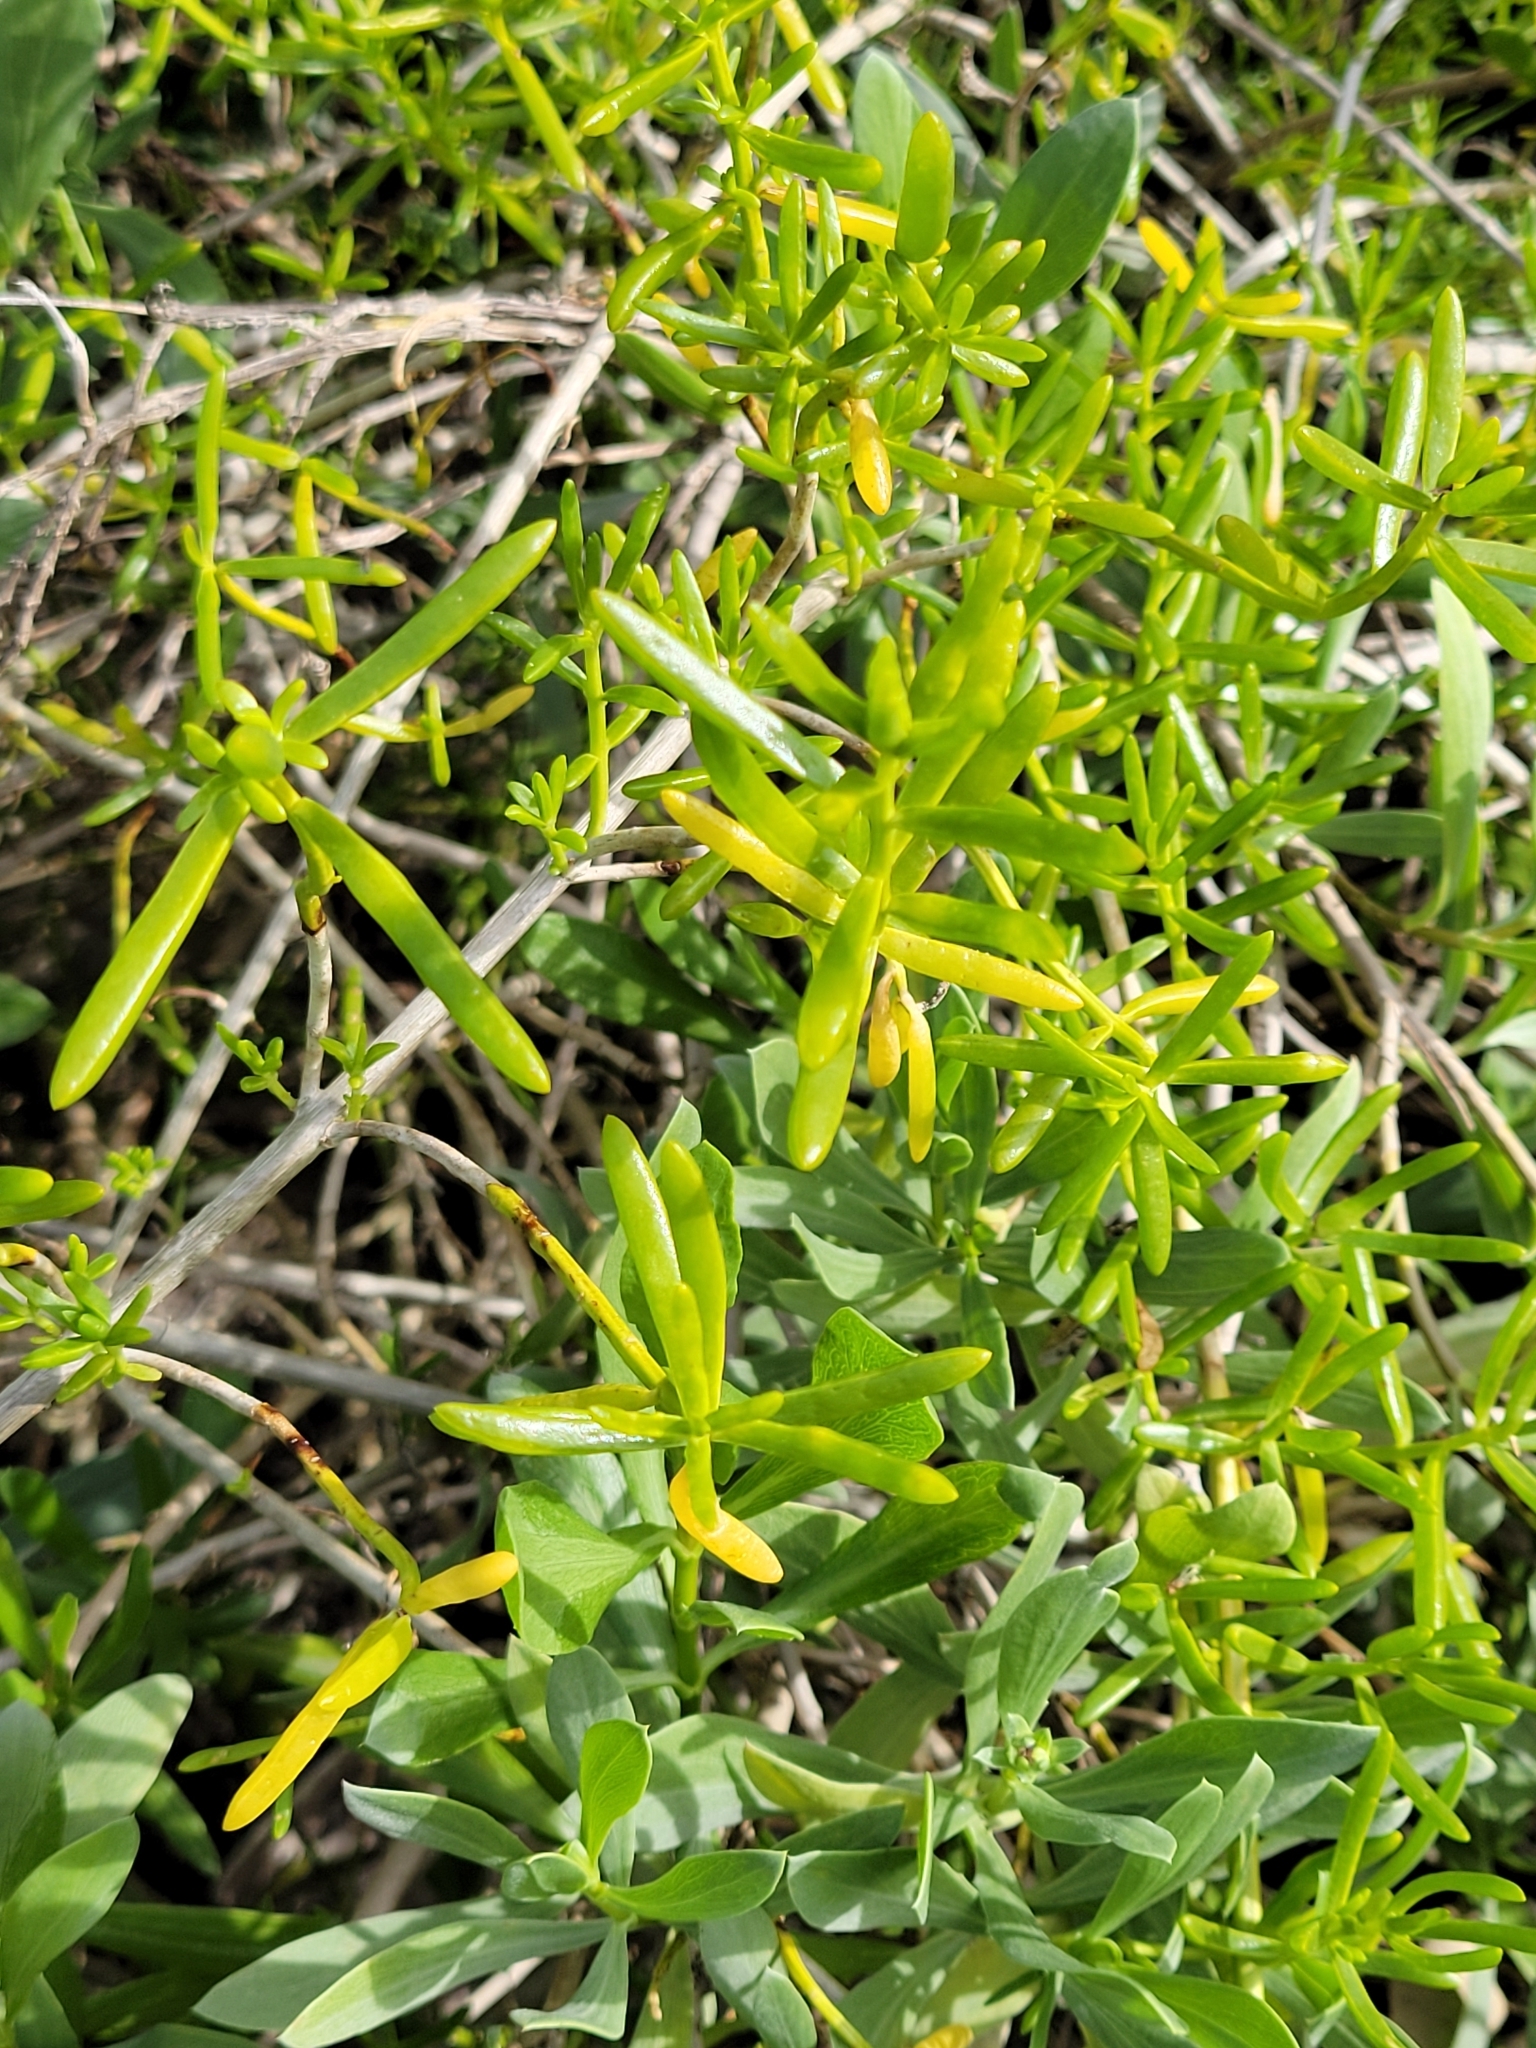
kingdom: Plantae
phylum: Tracheophyta
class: Magnoliopsida
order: Brassicales
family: Bataceae
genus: Batis
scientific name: Batis maritima
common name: Turtleweed
